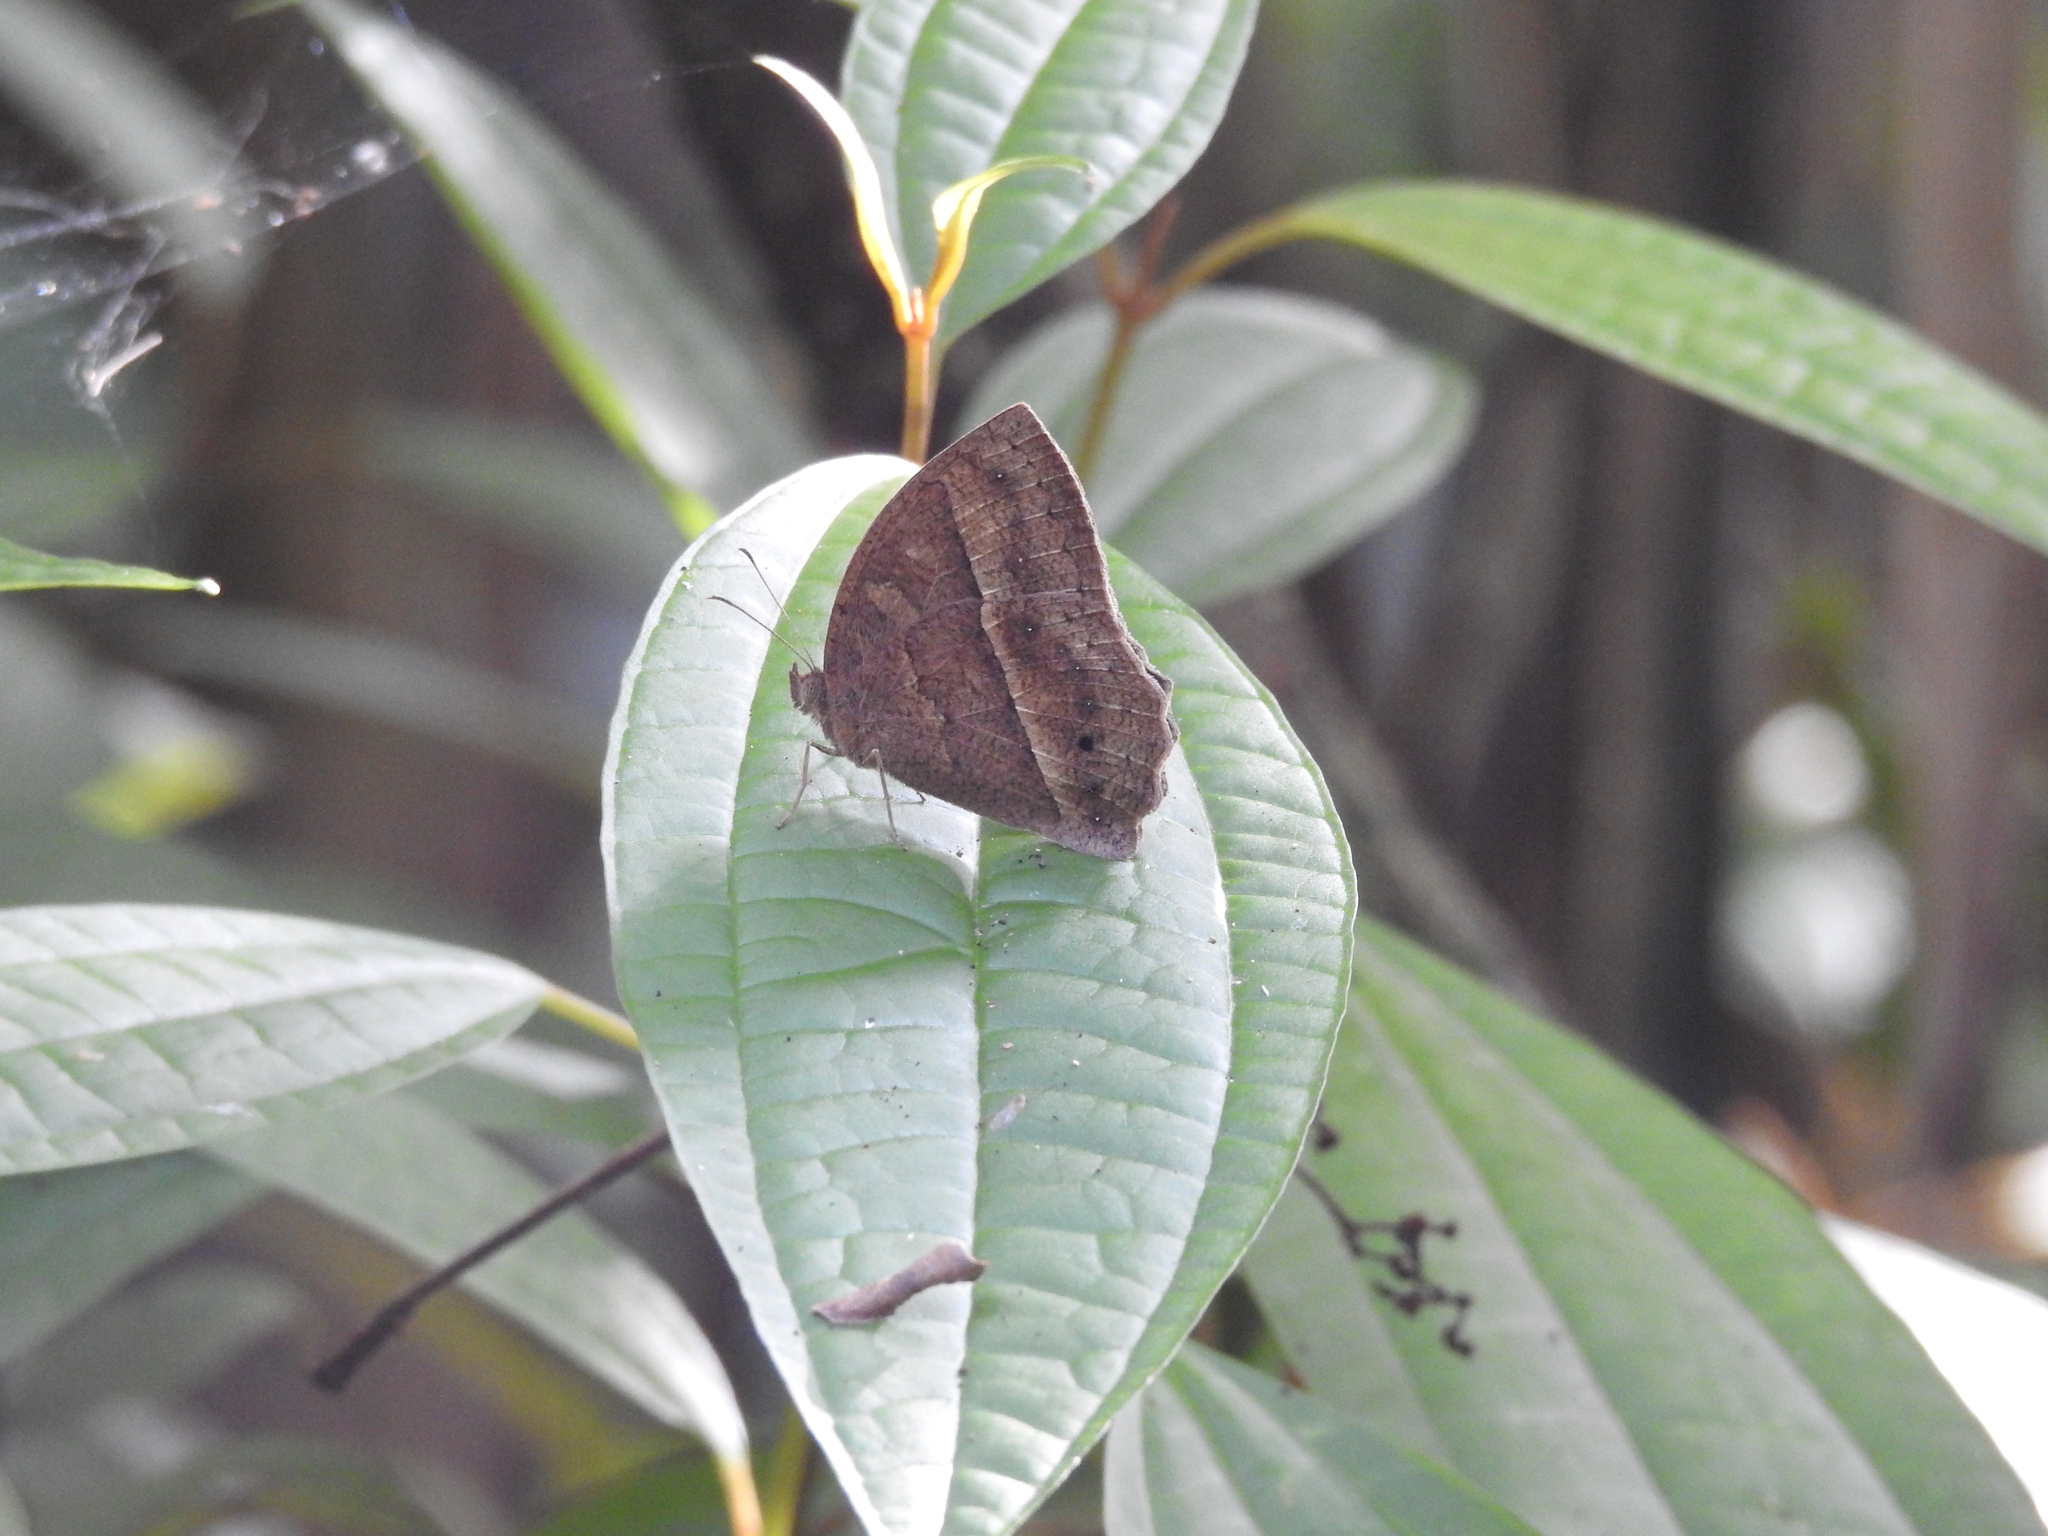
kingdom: Animalia
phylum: Arthropoda
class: Insecta
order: Lepidoptera
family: Nymphalidae
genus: Mycalesis
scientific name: Mycalesis visala
